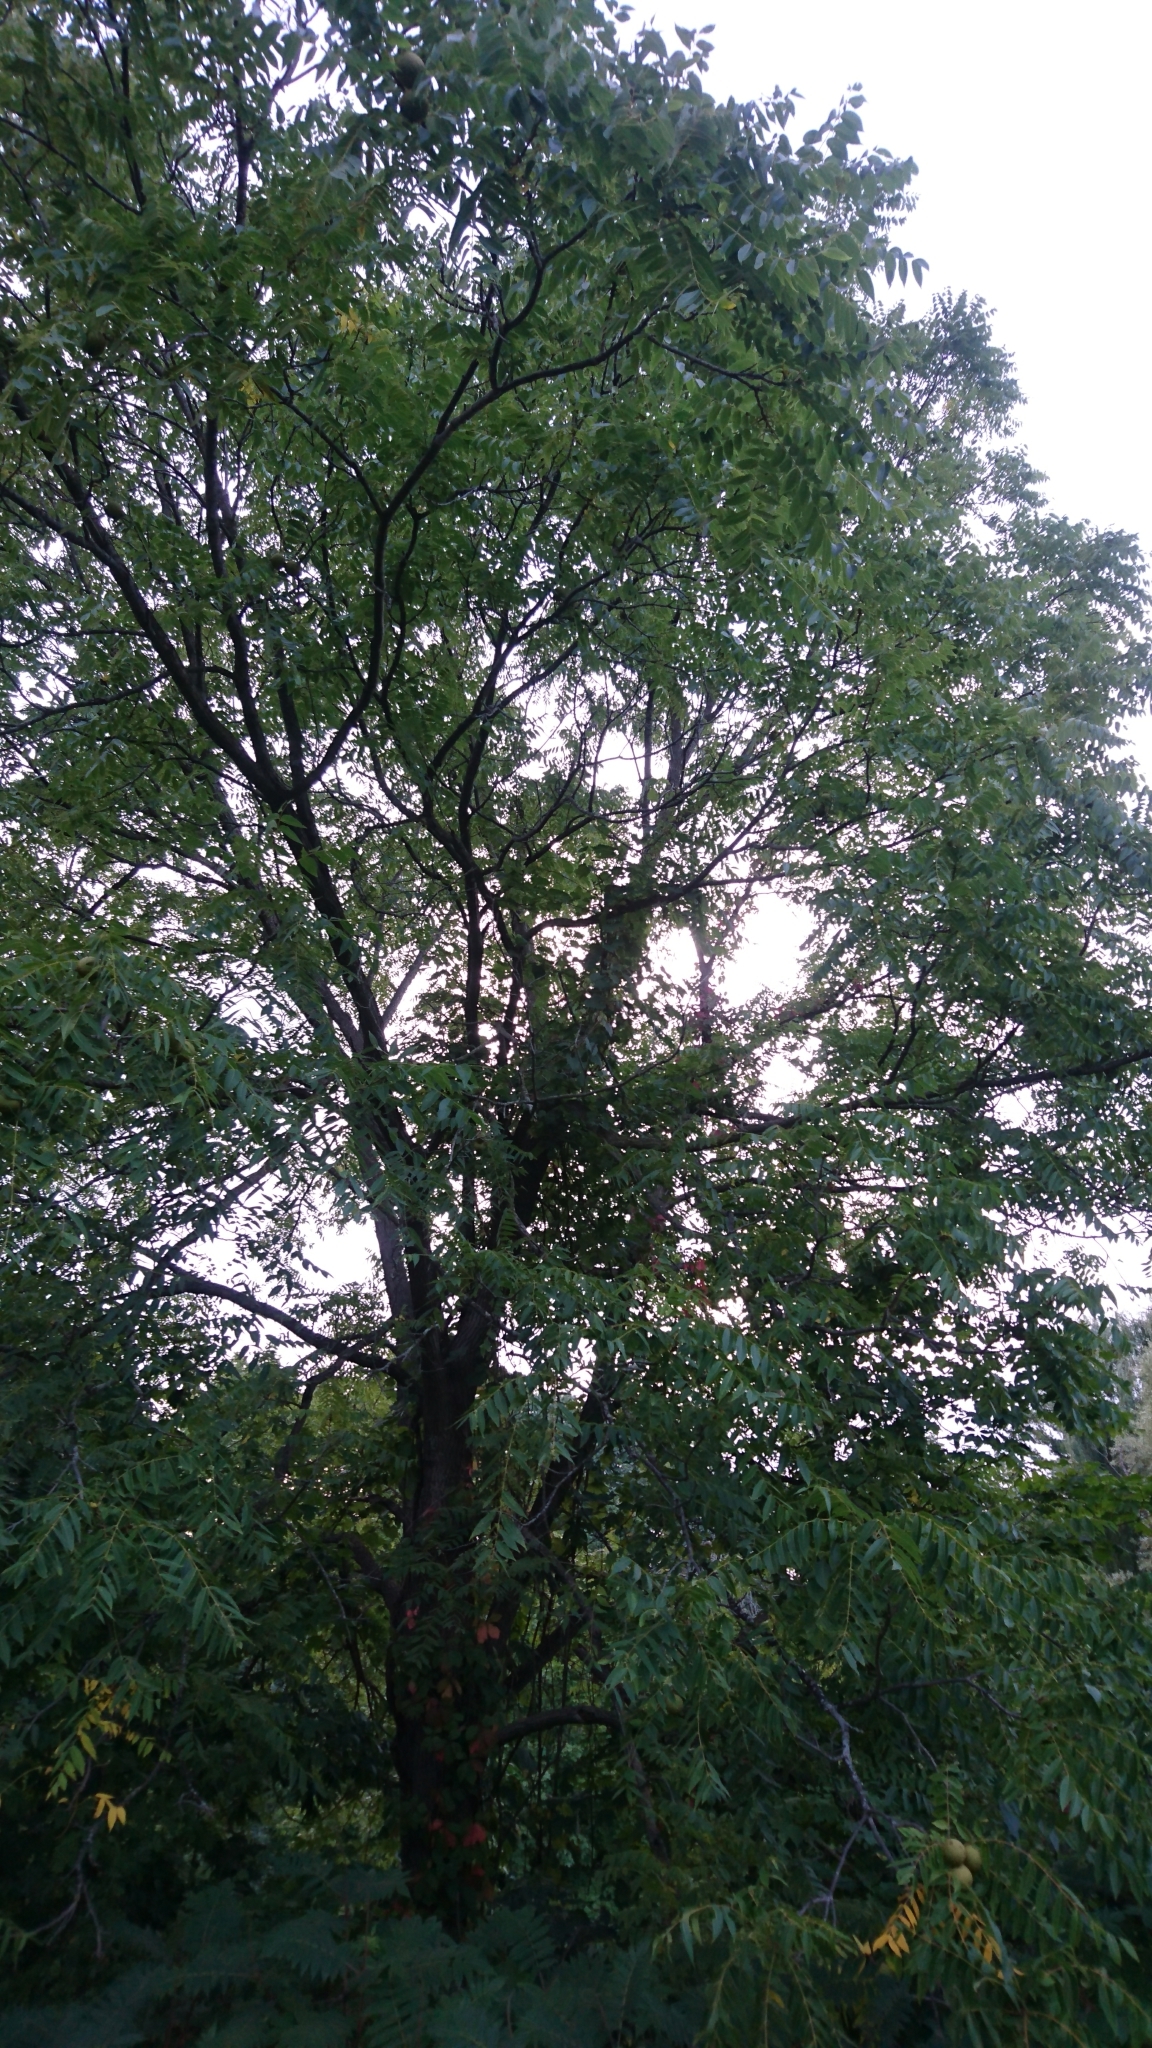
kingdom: Plantae
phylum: Tracheophyta
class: Magnoliopsida
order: Fagales
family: Juglandaceae
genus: Juglans
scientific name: Juglans nigra
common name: Black walnut
